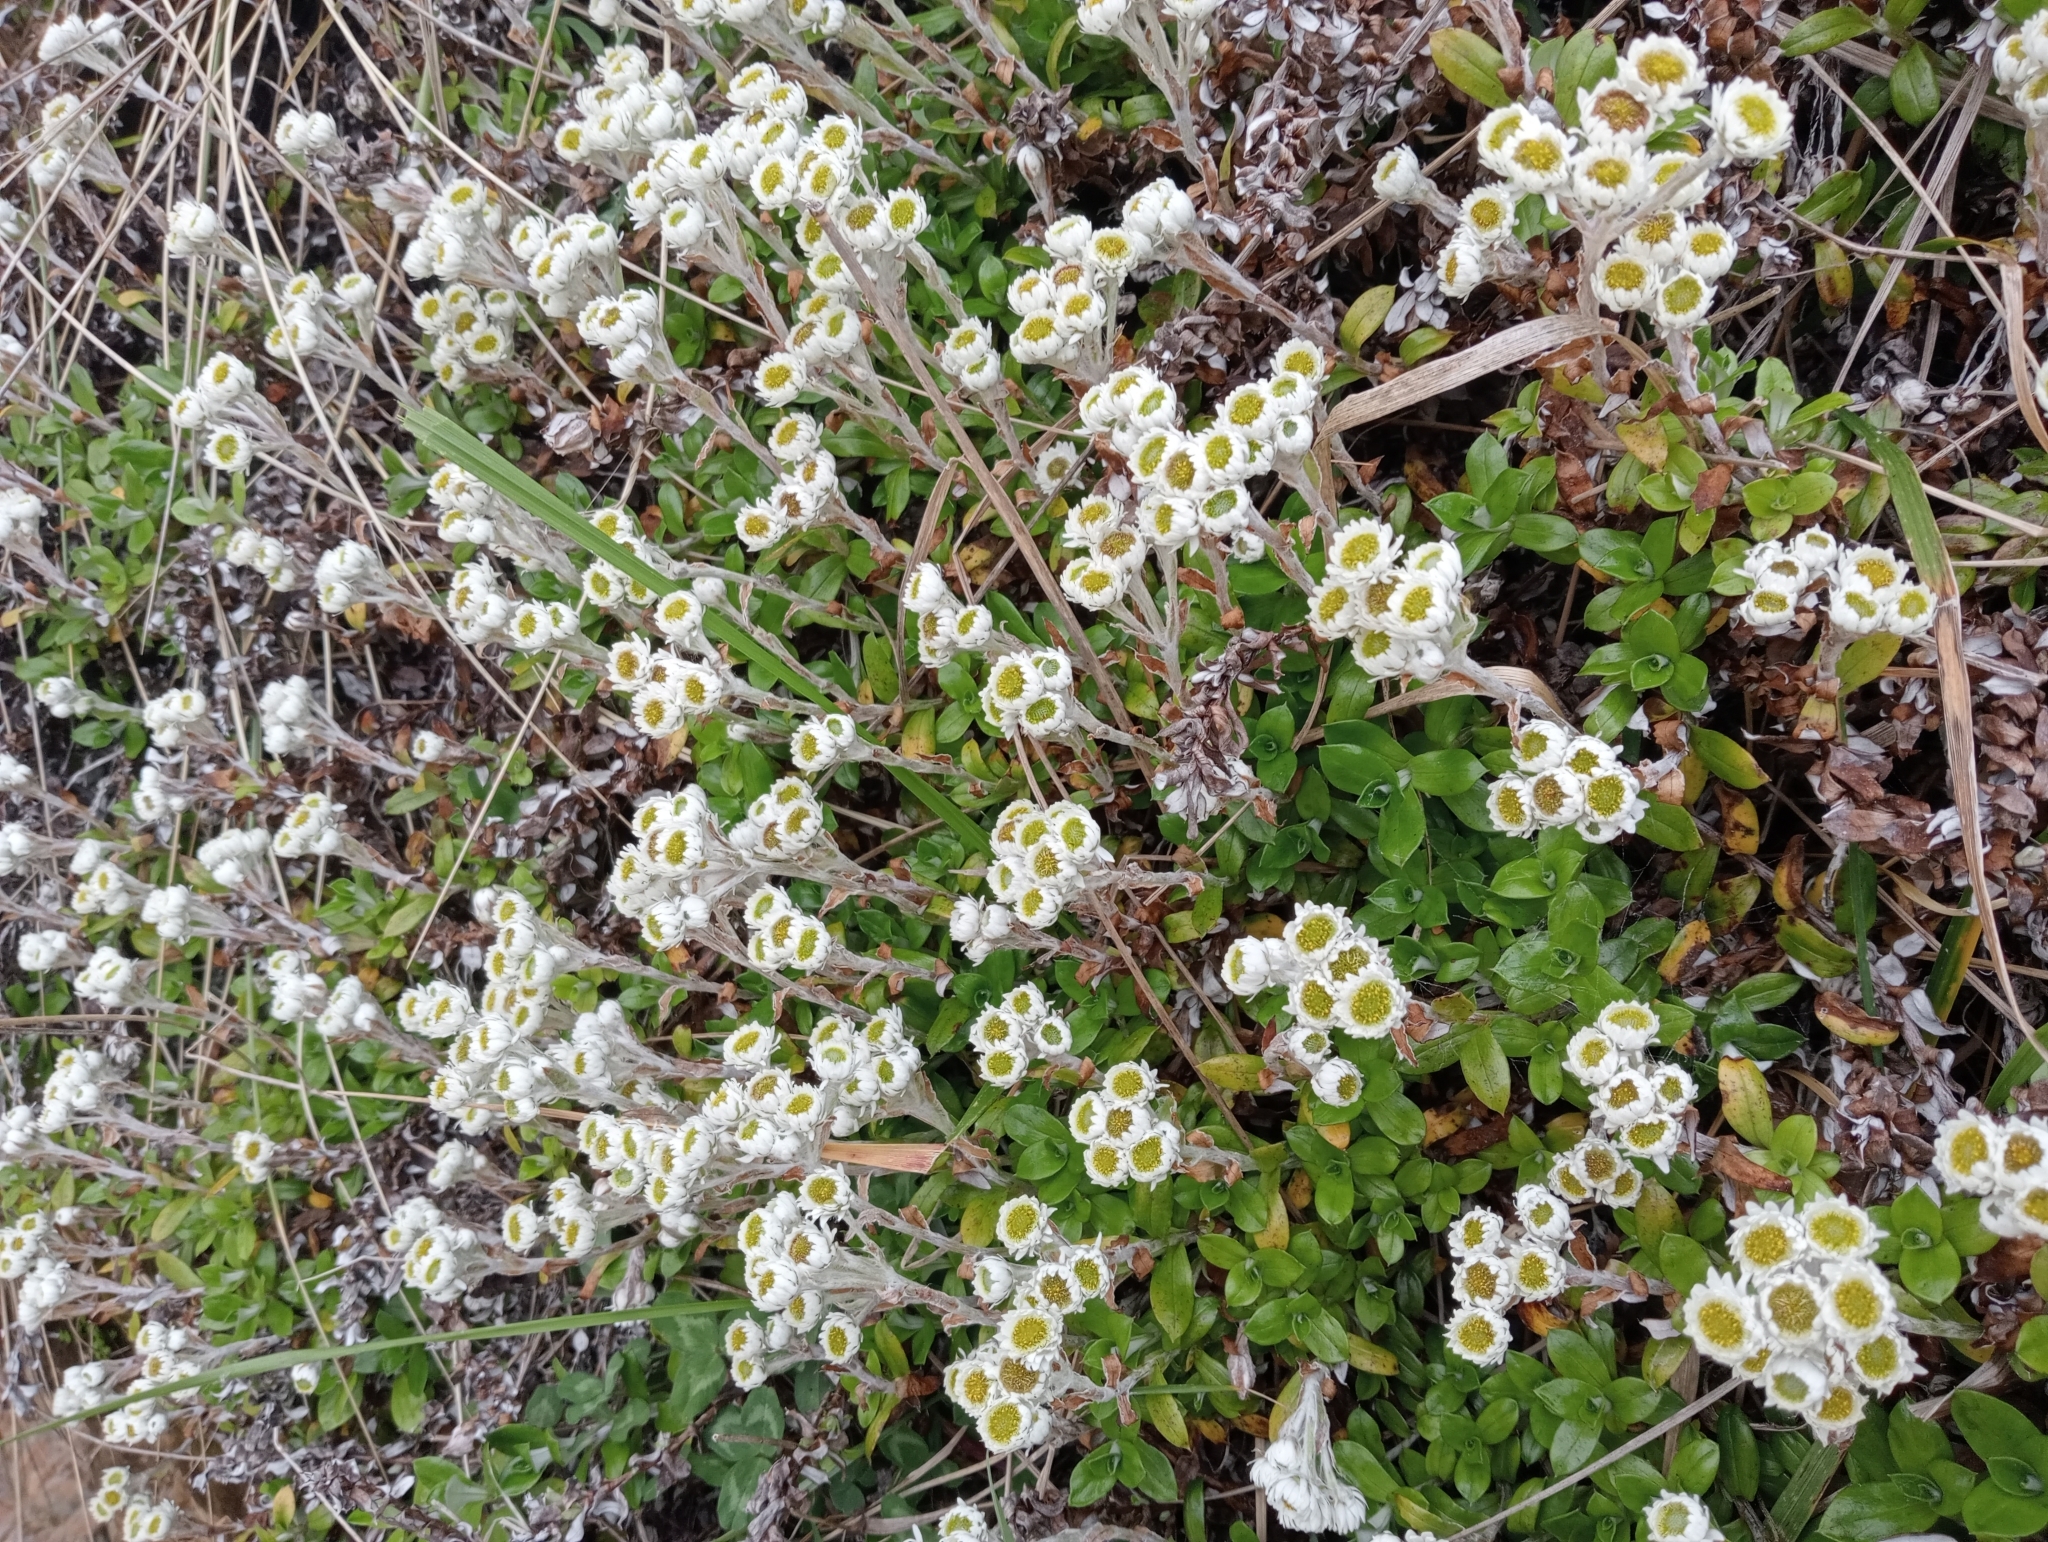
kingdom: Plantae
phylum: Tracheophyta
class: Magnoliopsida
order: Asterales
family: Asteraceae
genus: Anaphalioides
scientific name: Anaphalioides hookeri
